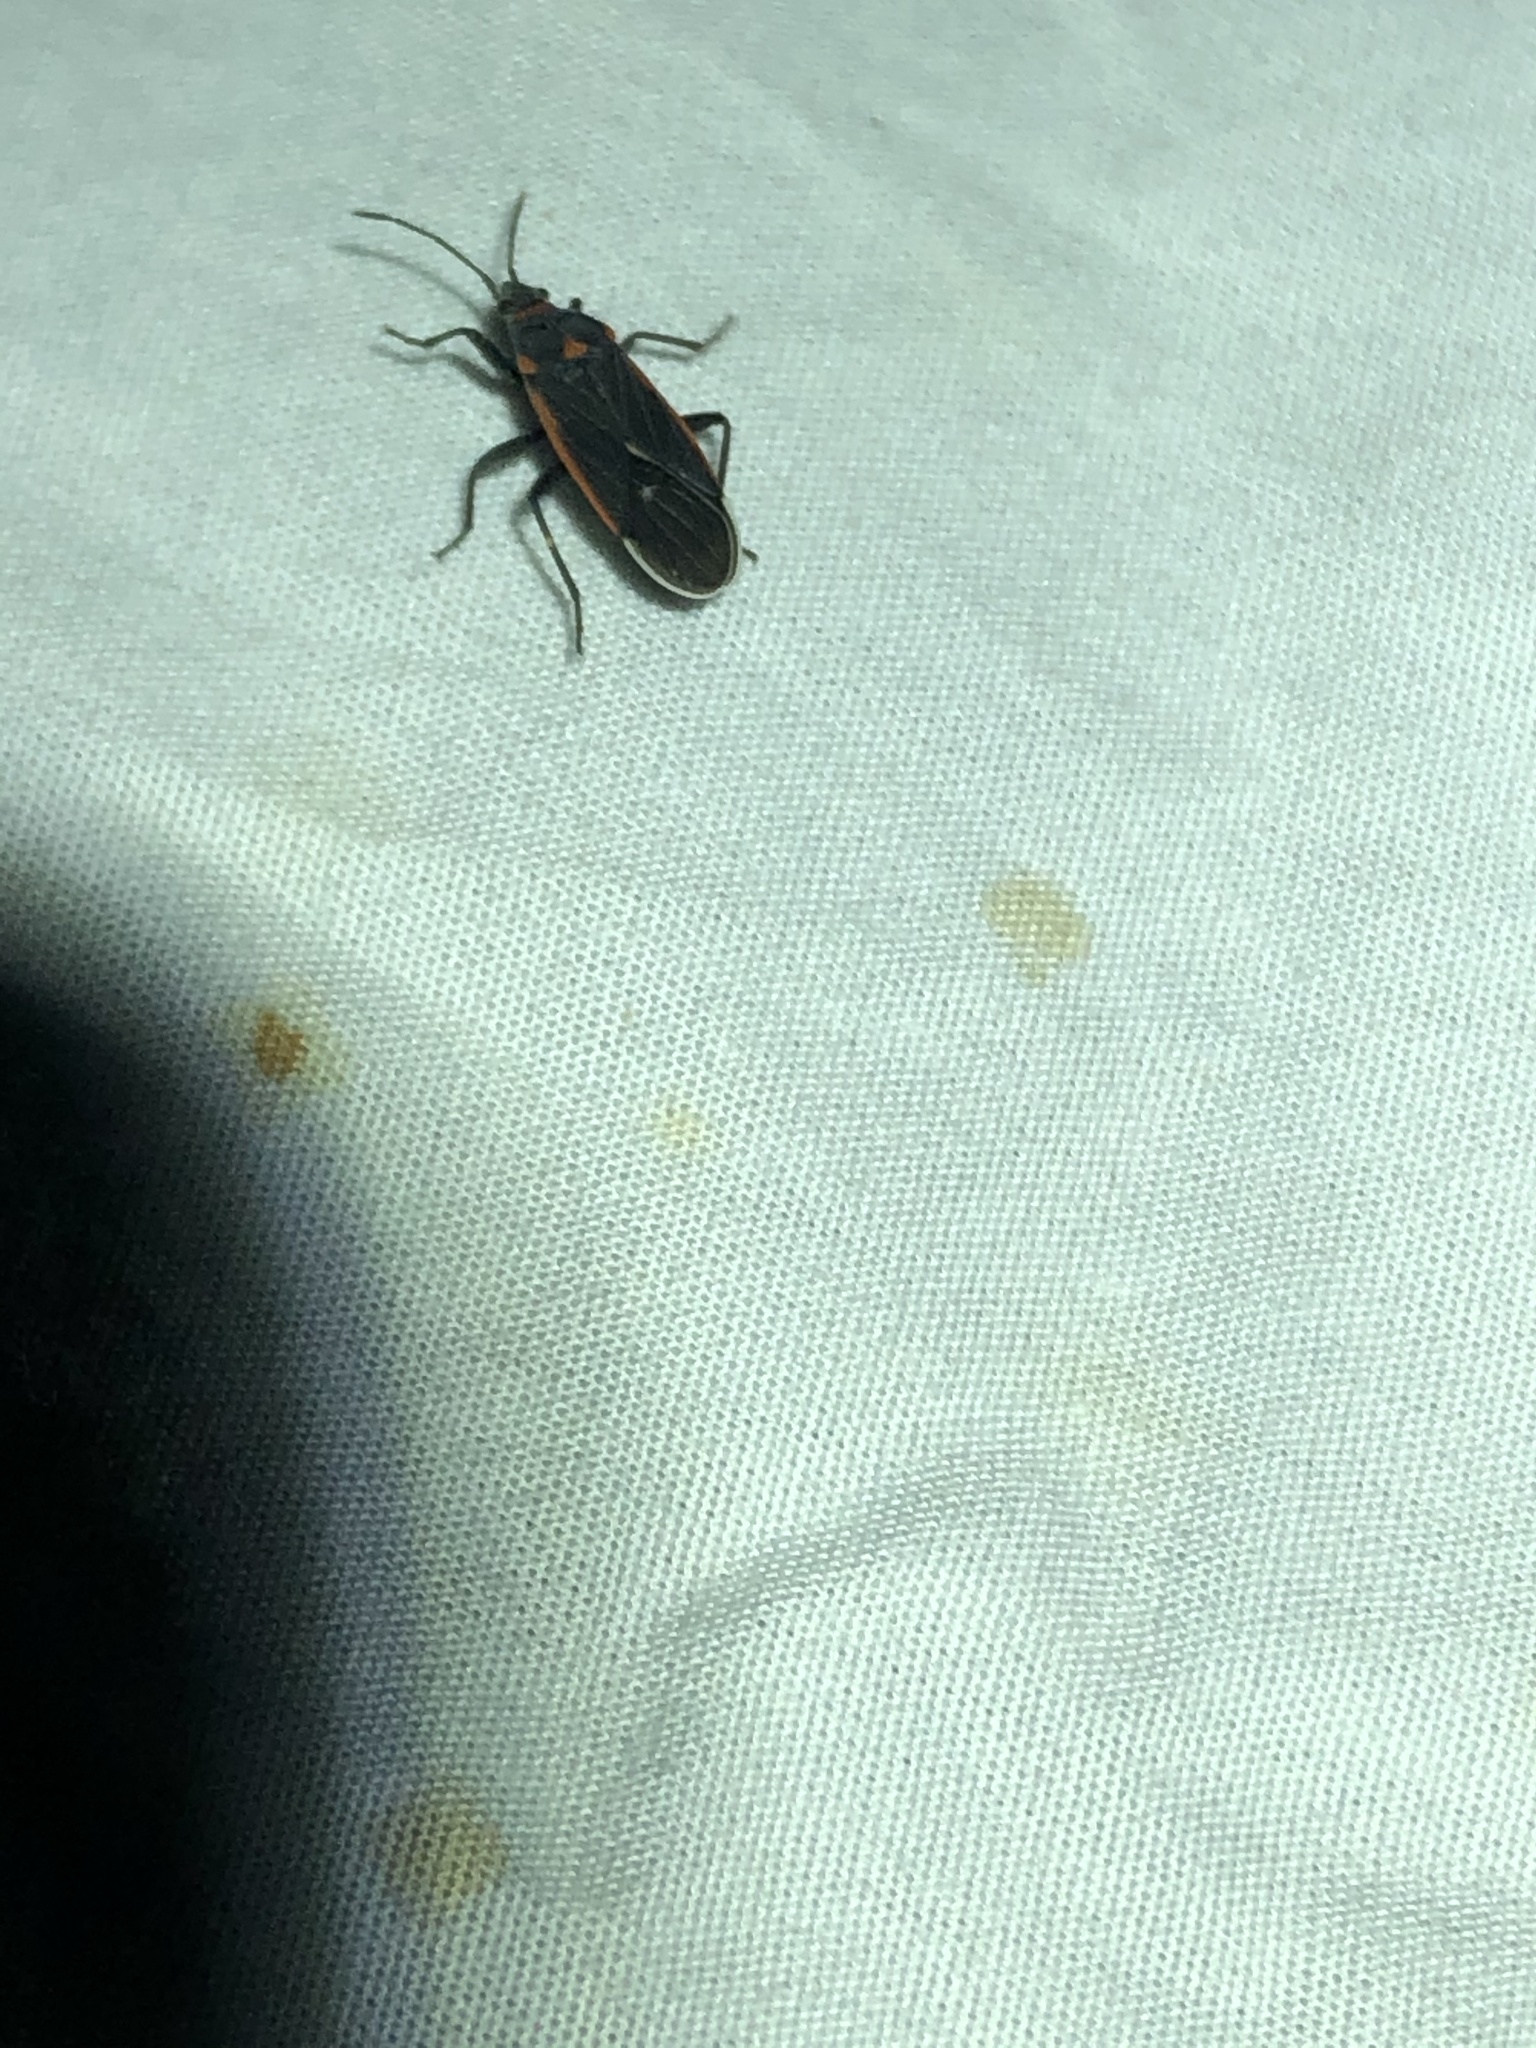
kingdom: Animalia
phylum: Arthropoda
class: Insecta
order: Hemiptera
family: Lygaeidae
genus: Melacoryphus
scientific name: Melacoryphus lateralis
